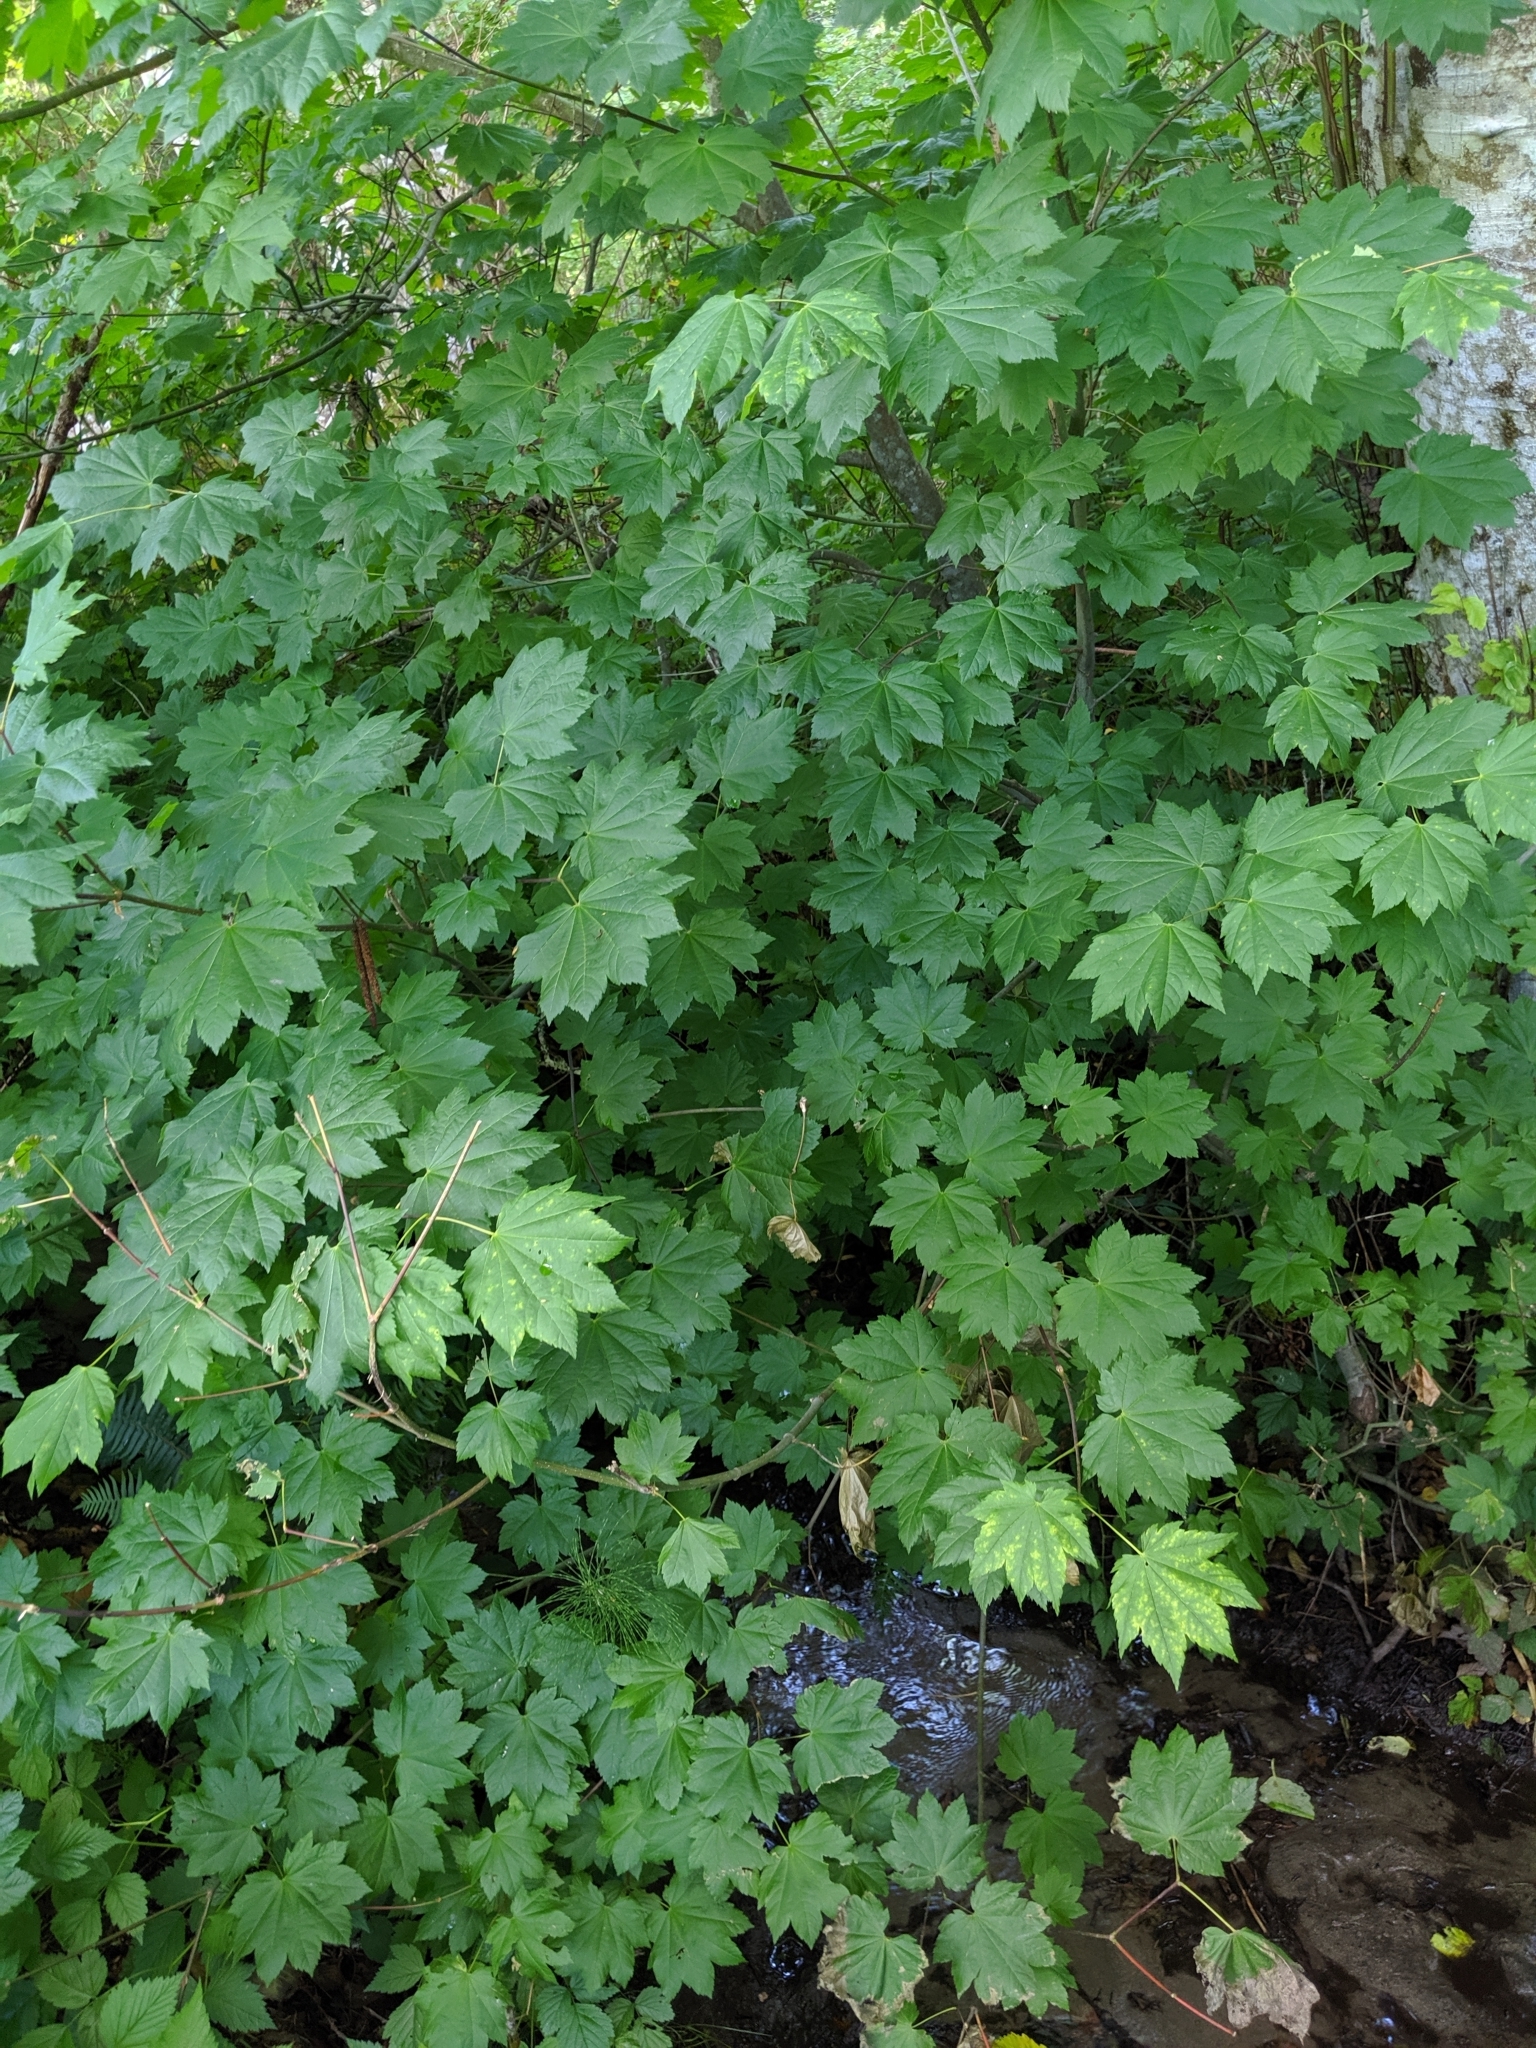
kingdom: Plantae
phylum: Tracheophyta
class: Magnoliopsida
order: Sapindales
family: Sapindaceae
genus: Acer
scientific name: Acer circinatum
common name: Vine maple
